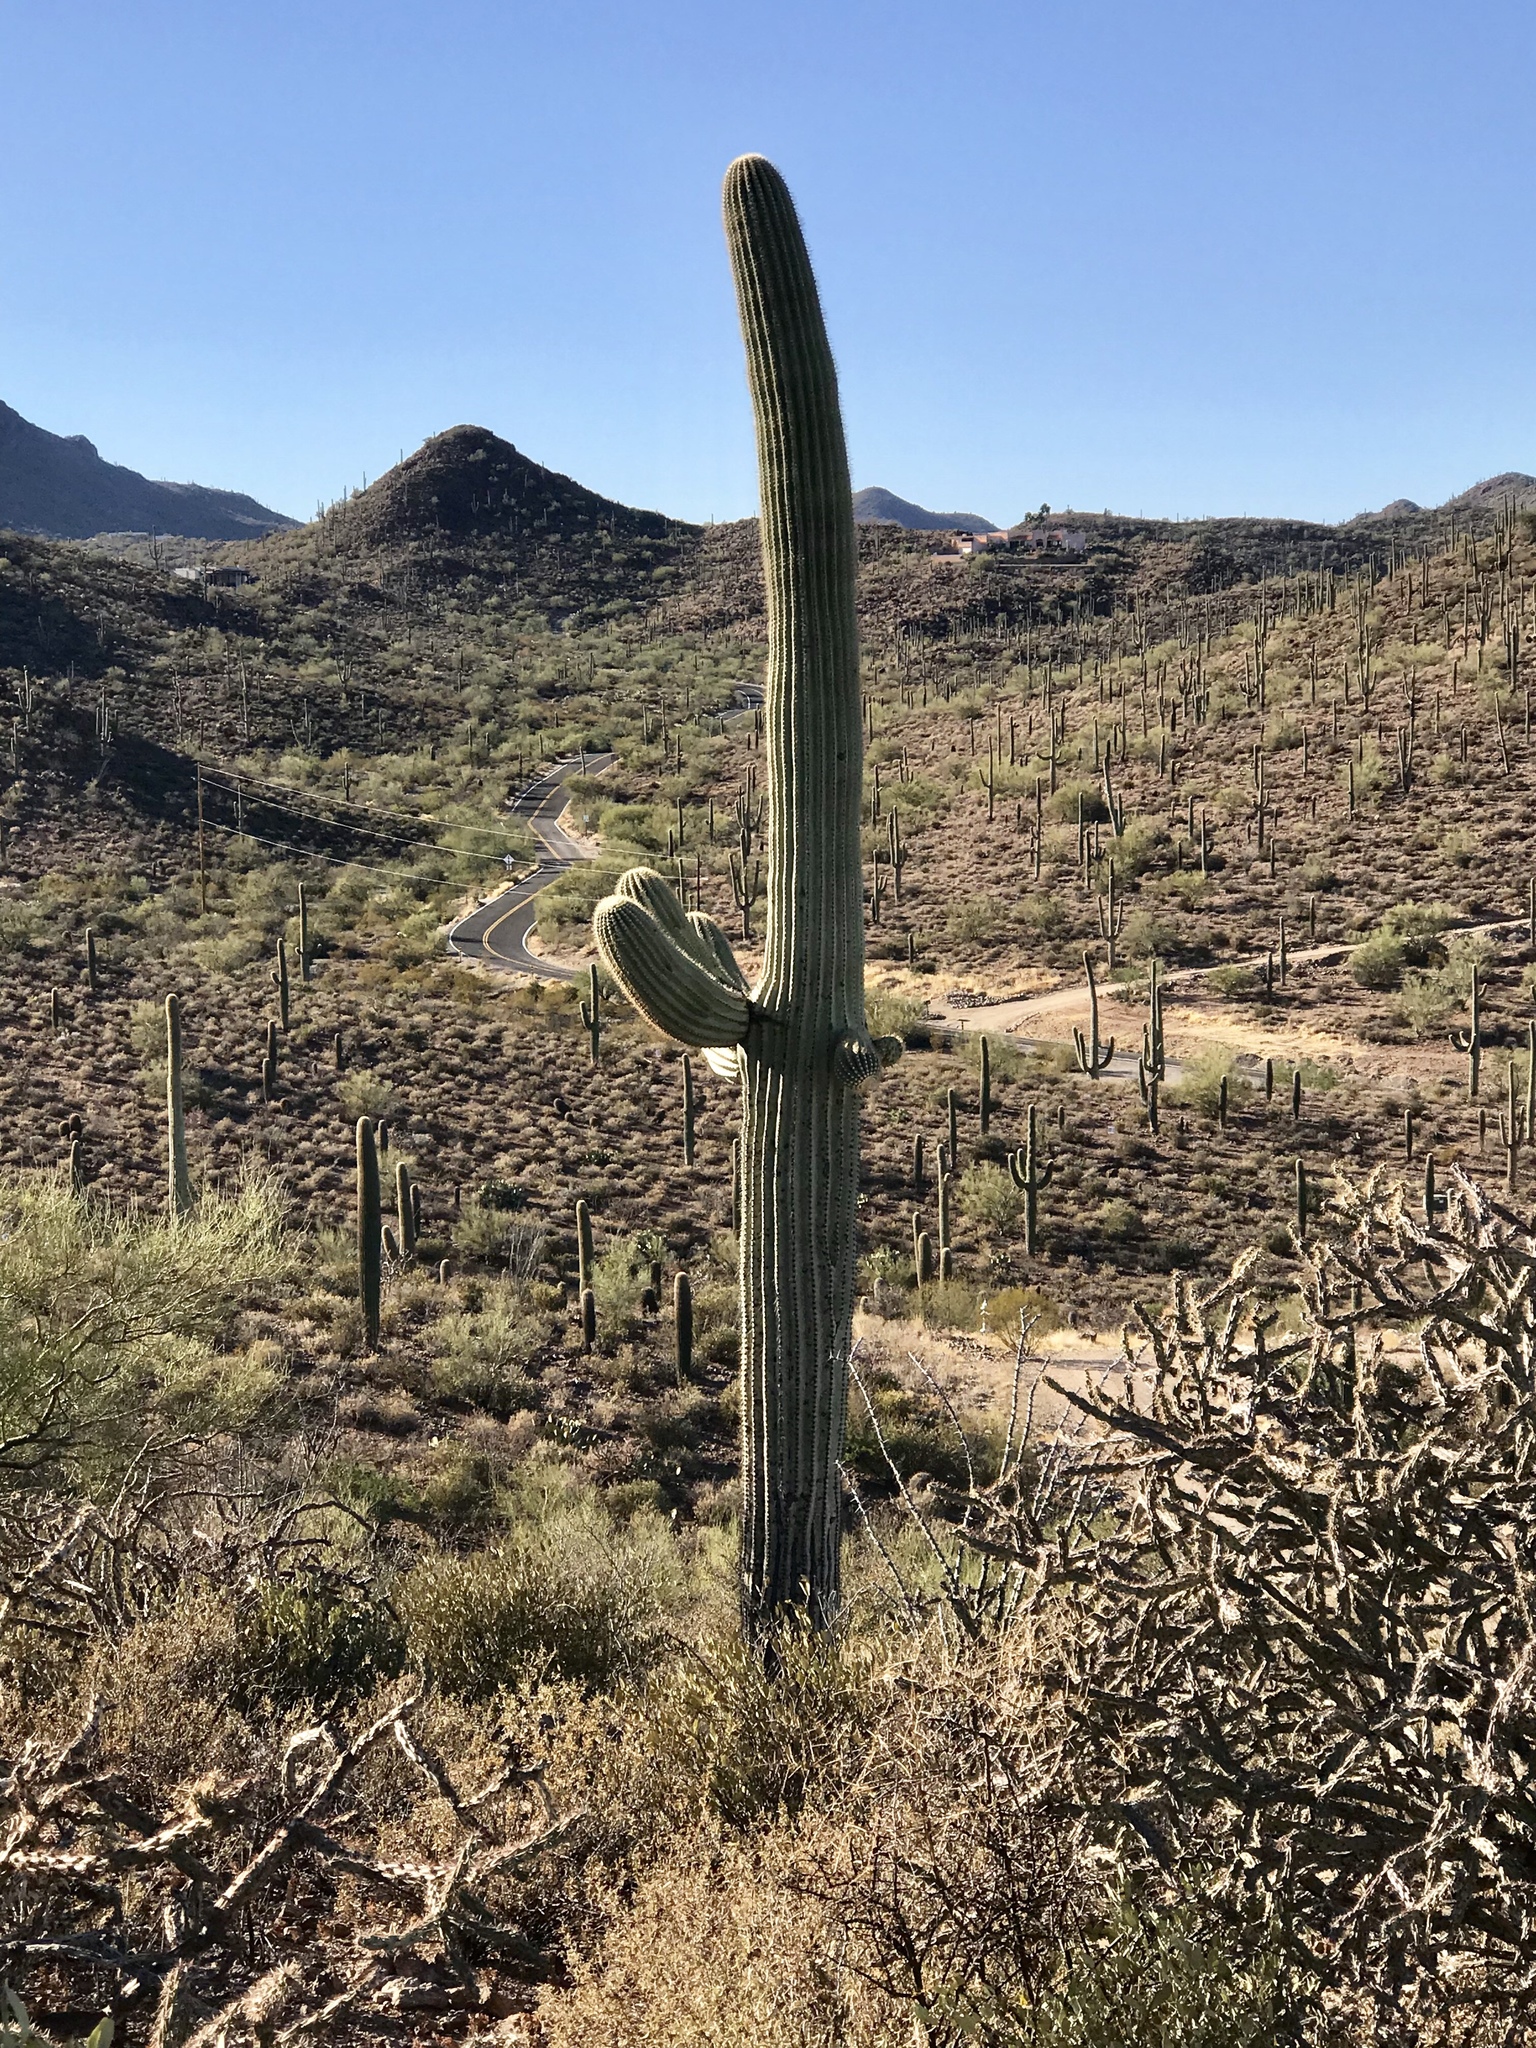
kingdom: Plantae
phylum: Tracheophyta
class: Magnoliopsida
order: Caryophyllales
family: Cactaceae
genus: Carnegiea
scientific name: Carnegiea gigantea
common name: Saguaro
